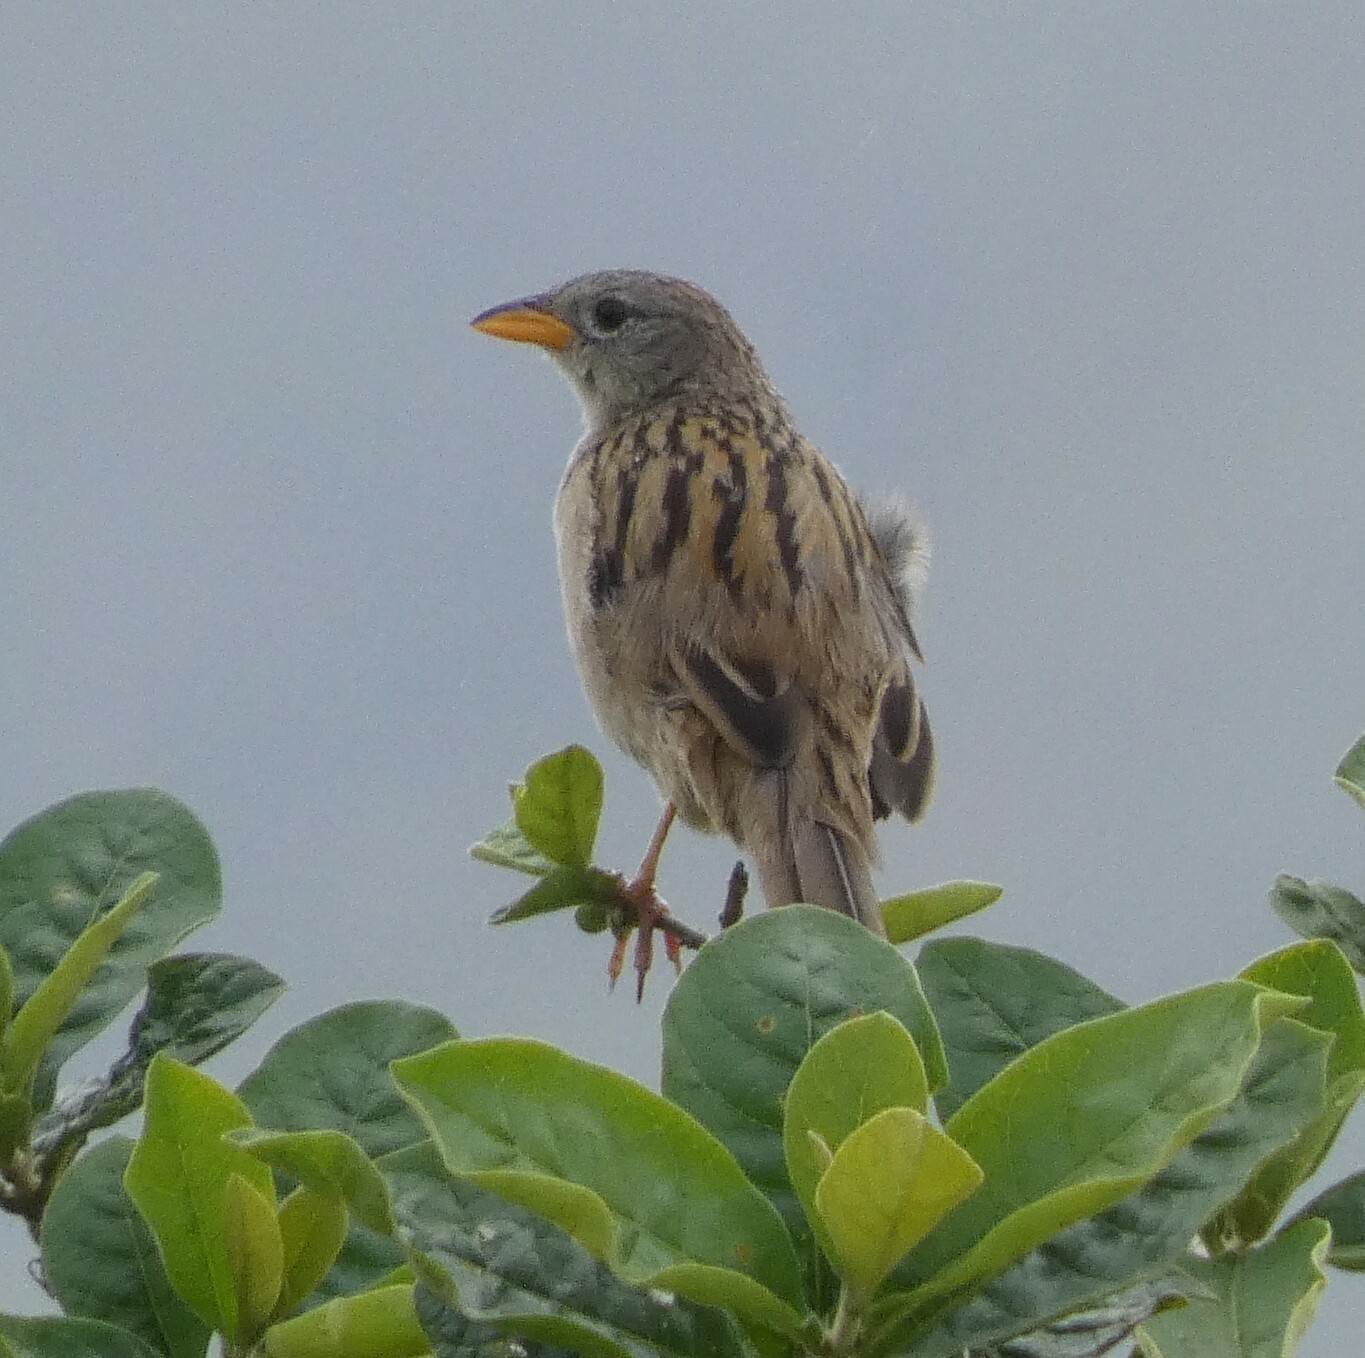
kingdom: Animalia
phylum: Chordata
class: Aves
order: Passeriformes
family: Thraupidae
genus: Emberizoides
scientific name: Emberizoides herbicola
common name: Wedge-tailed grass-finch
